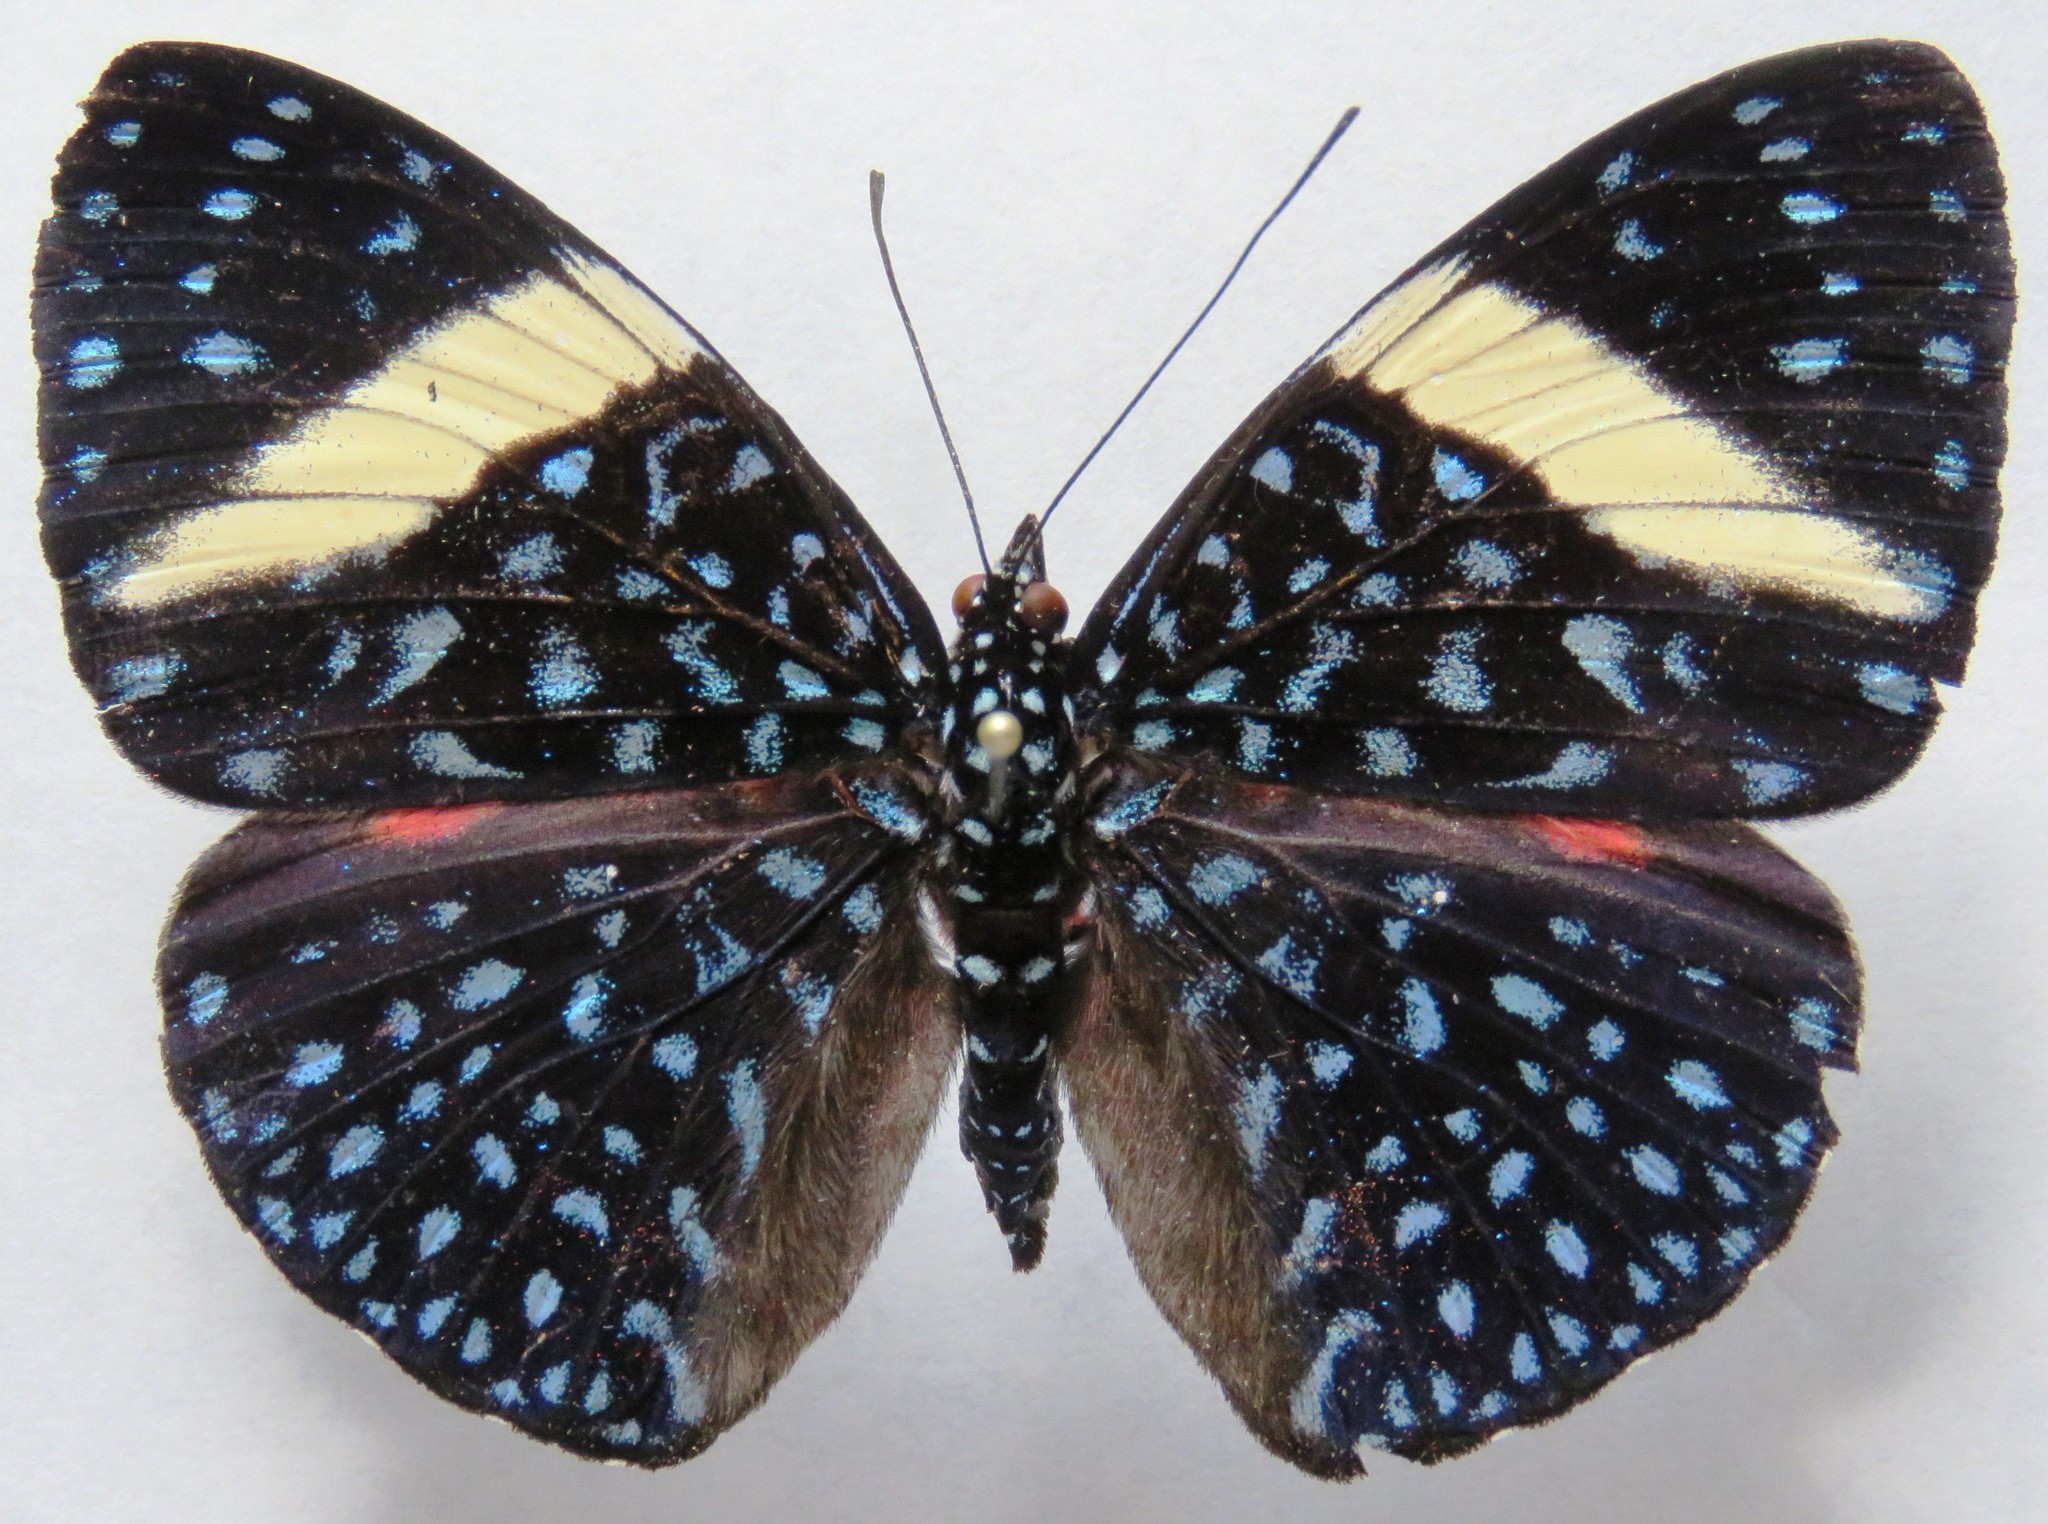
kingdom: Animalia
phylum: Arthropoda
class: Insecta
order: Lepidoptera
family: Nymphalidae
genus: Hamadryas
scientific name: Hamadryas arethusa
